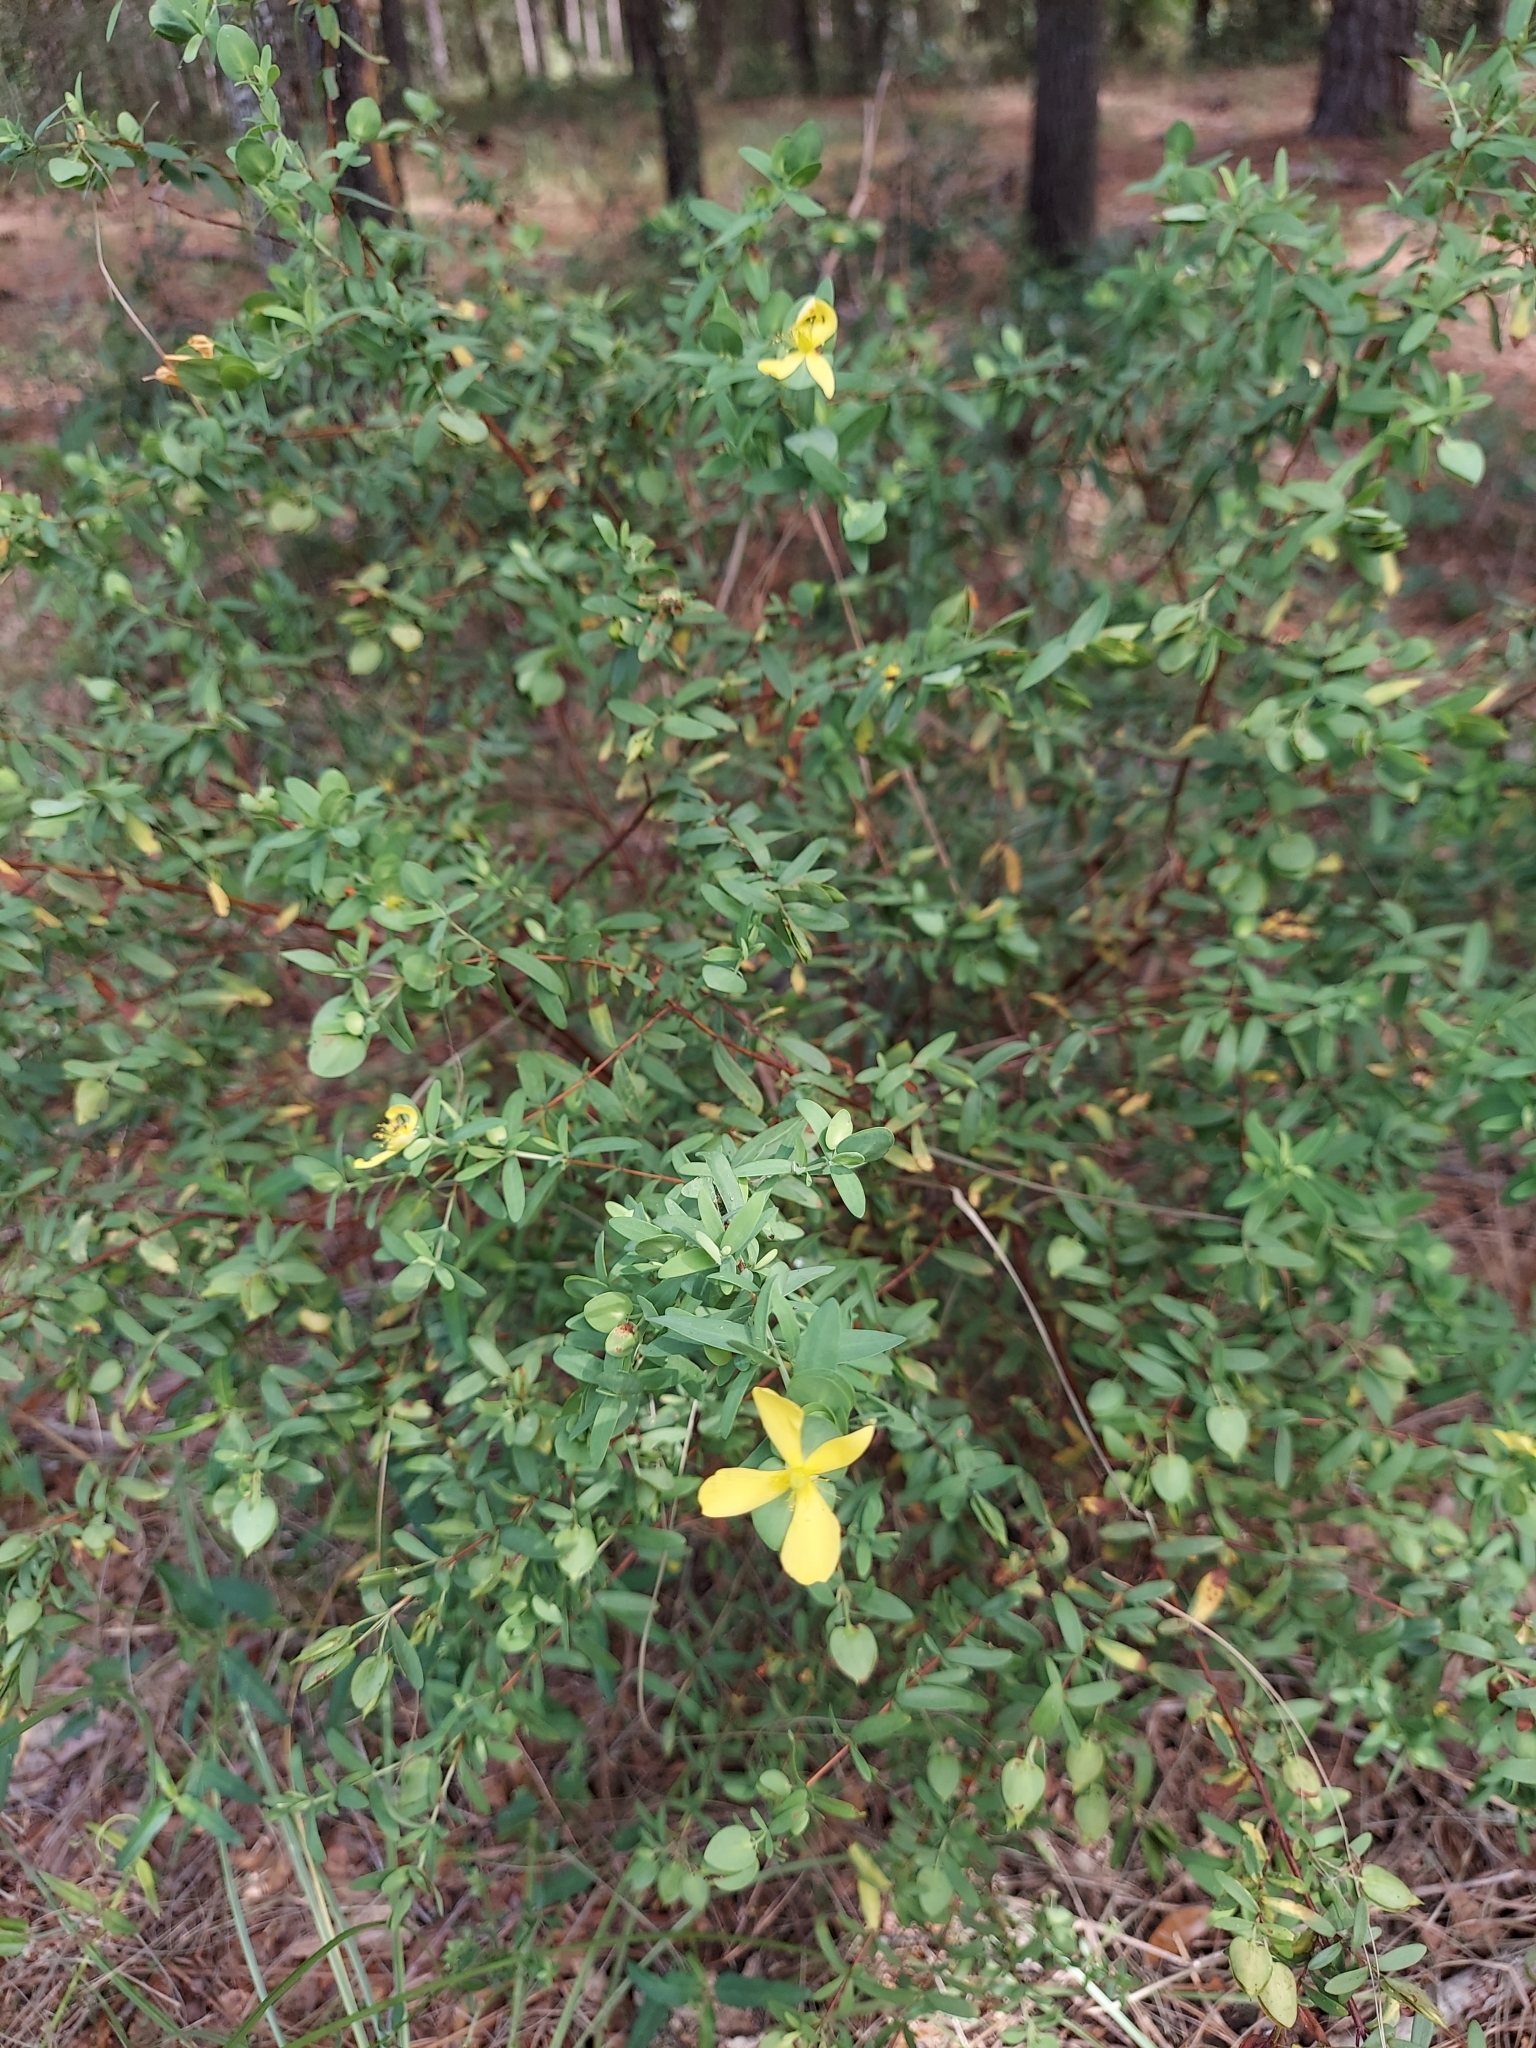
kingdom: Plantae
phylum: Tracheophyta
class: Magnoliopsida
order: Malpighiales
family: Hypericaceae
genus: Hypericum
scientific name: Hypericum hypericoides
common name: St. andrew's cross
